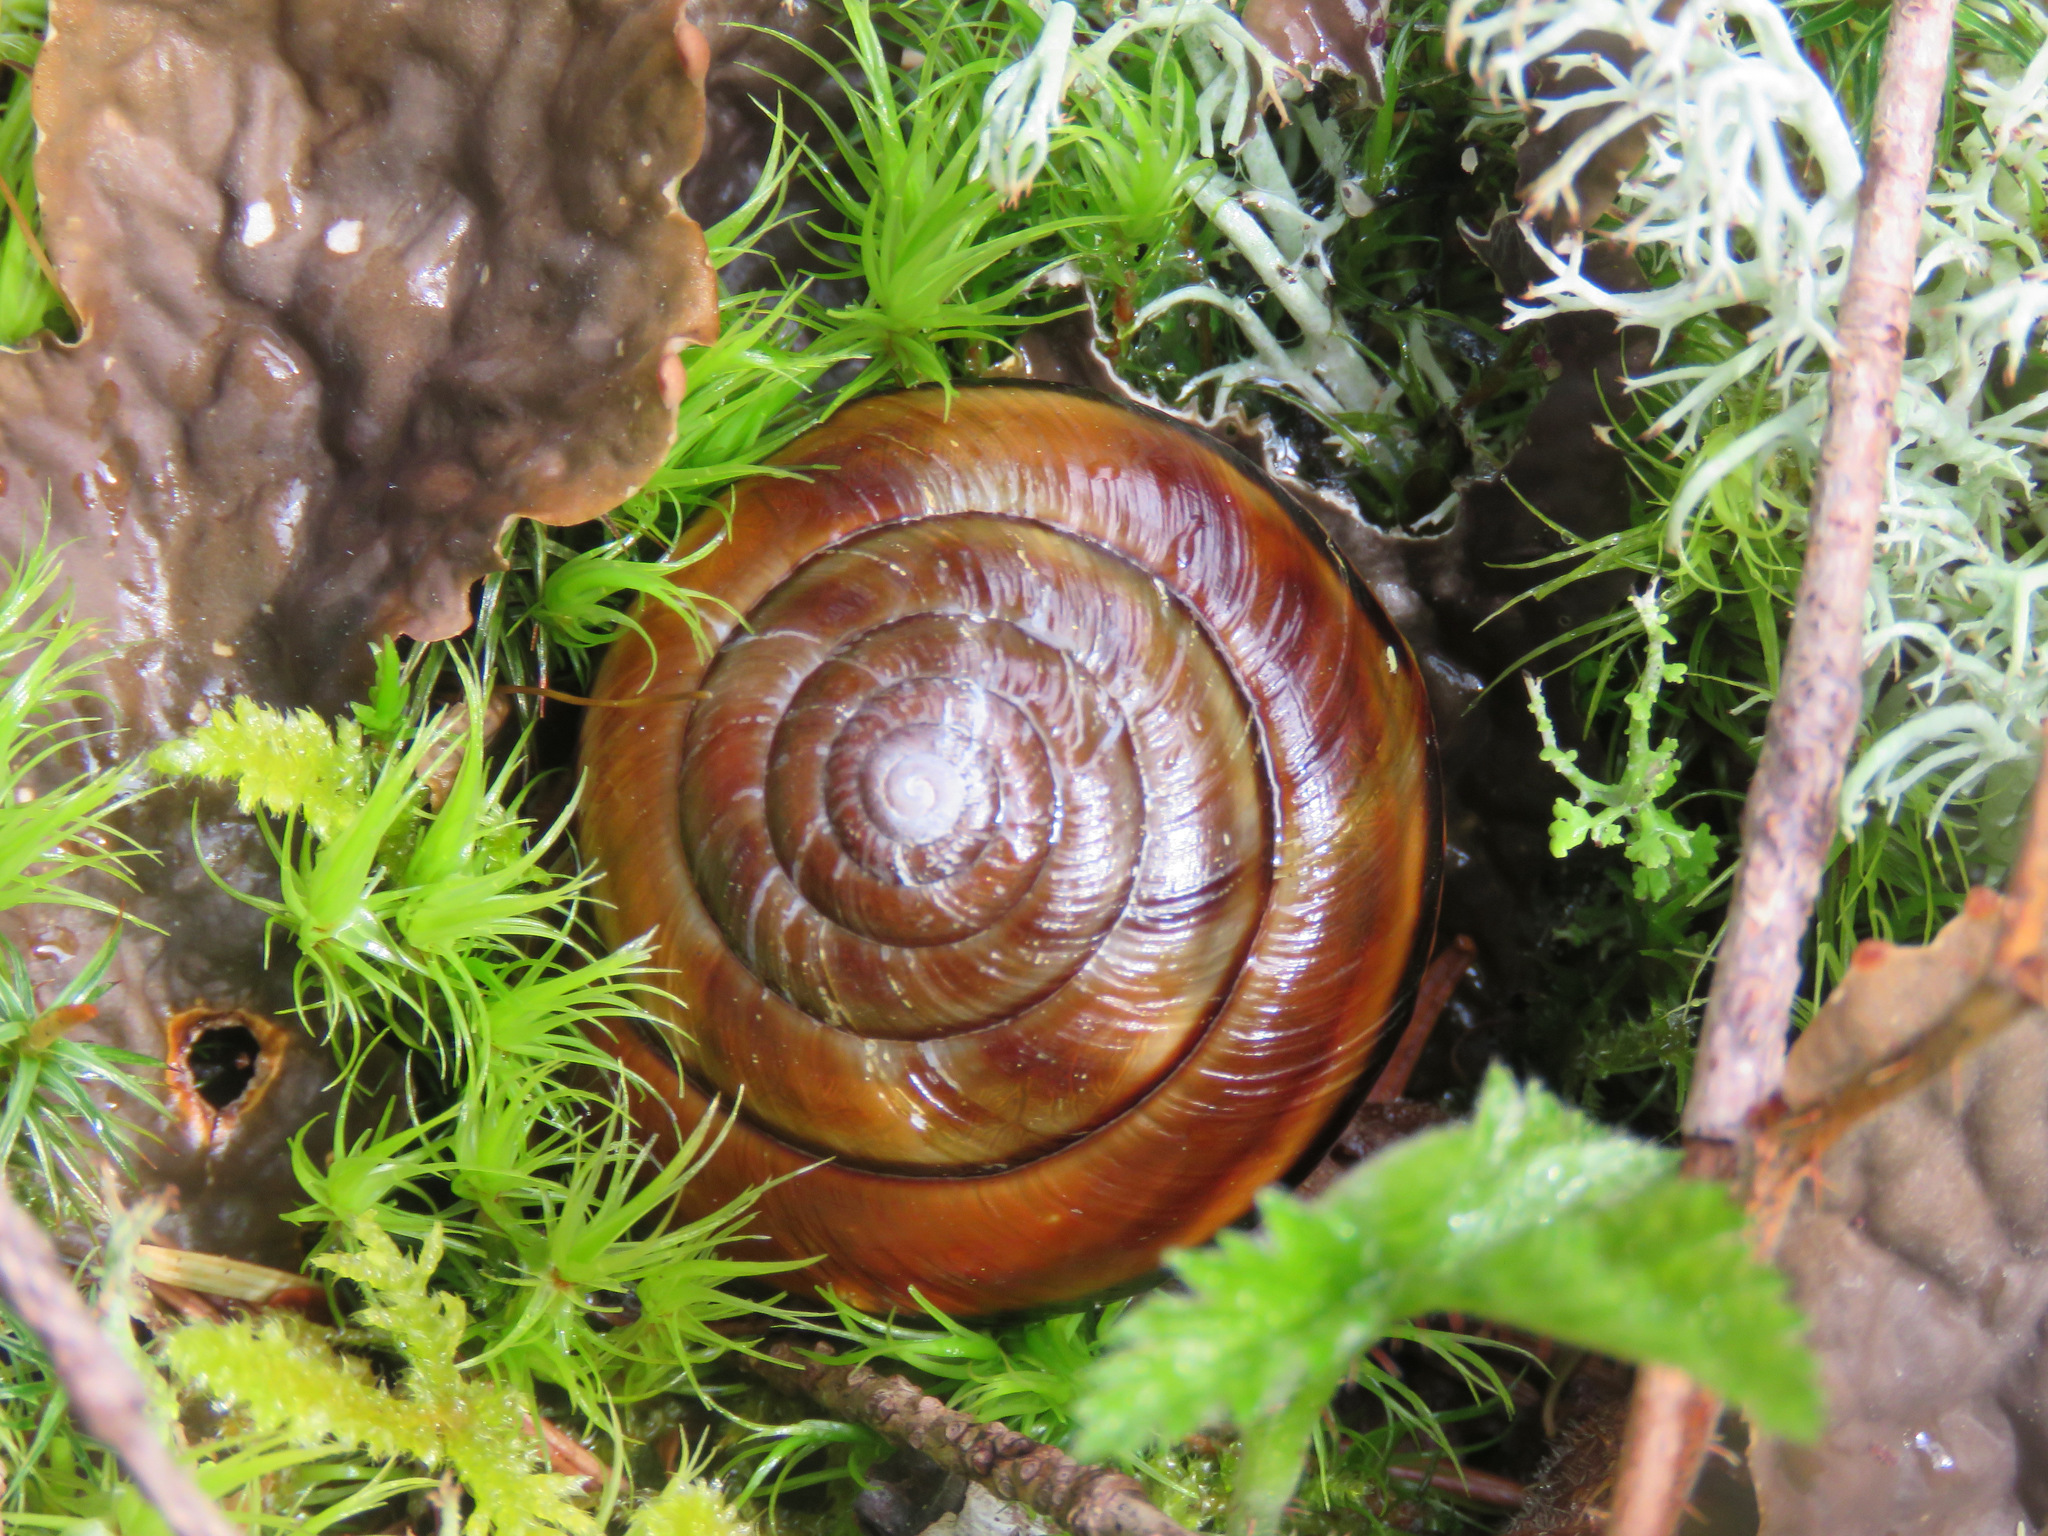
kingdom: Animalia
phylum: Mollusca
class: Gastropoda
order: Stylommatophora
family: Xanthonychidae
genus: Monadenia
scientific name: Monadenia fidelis
